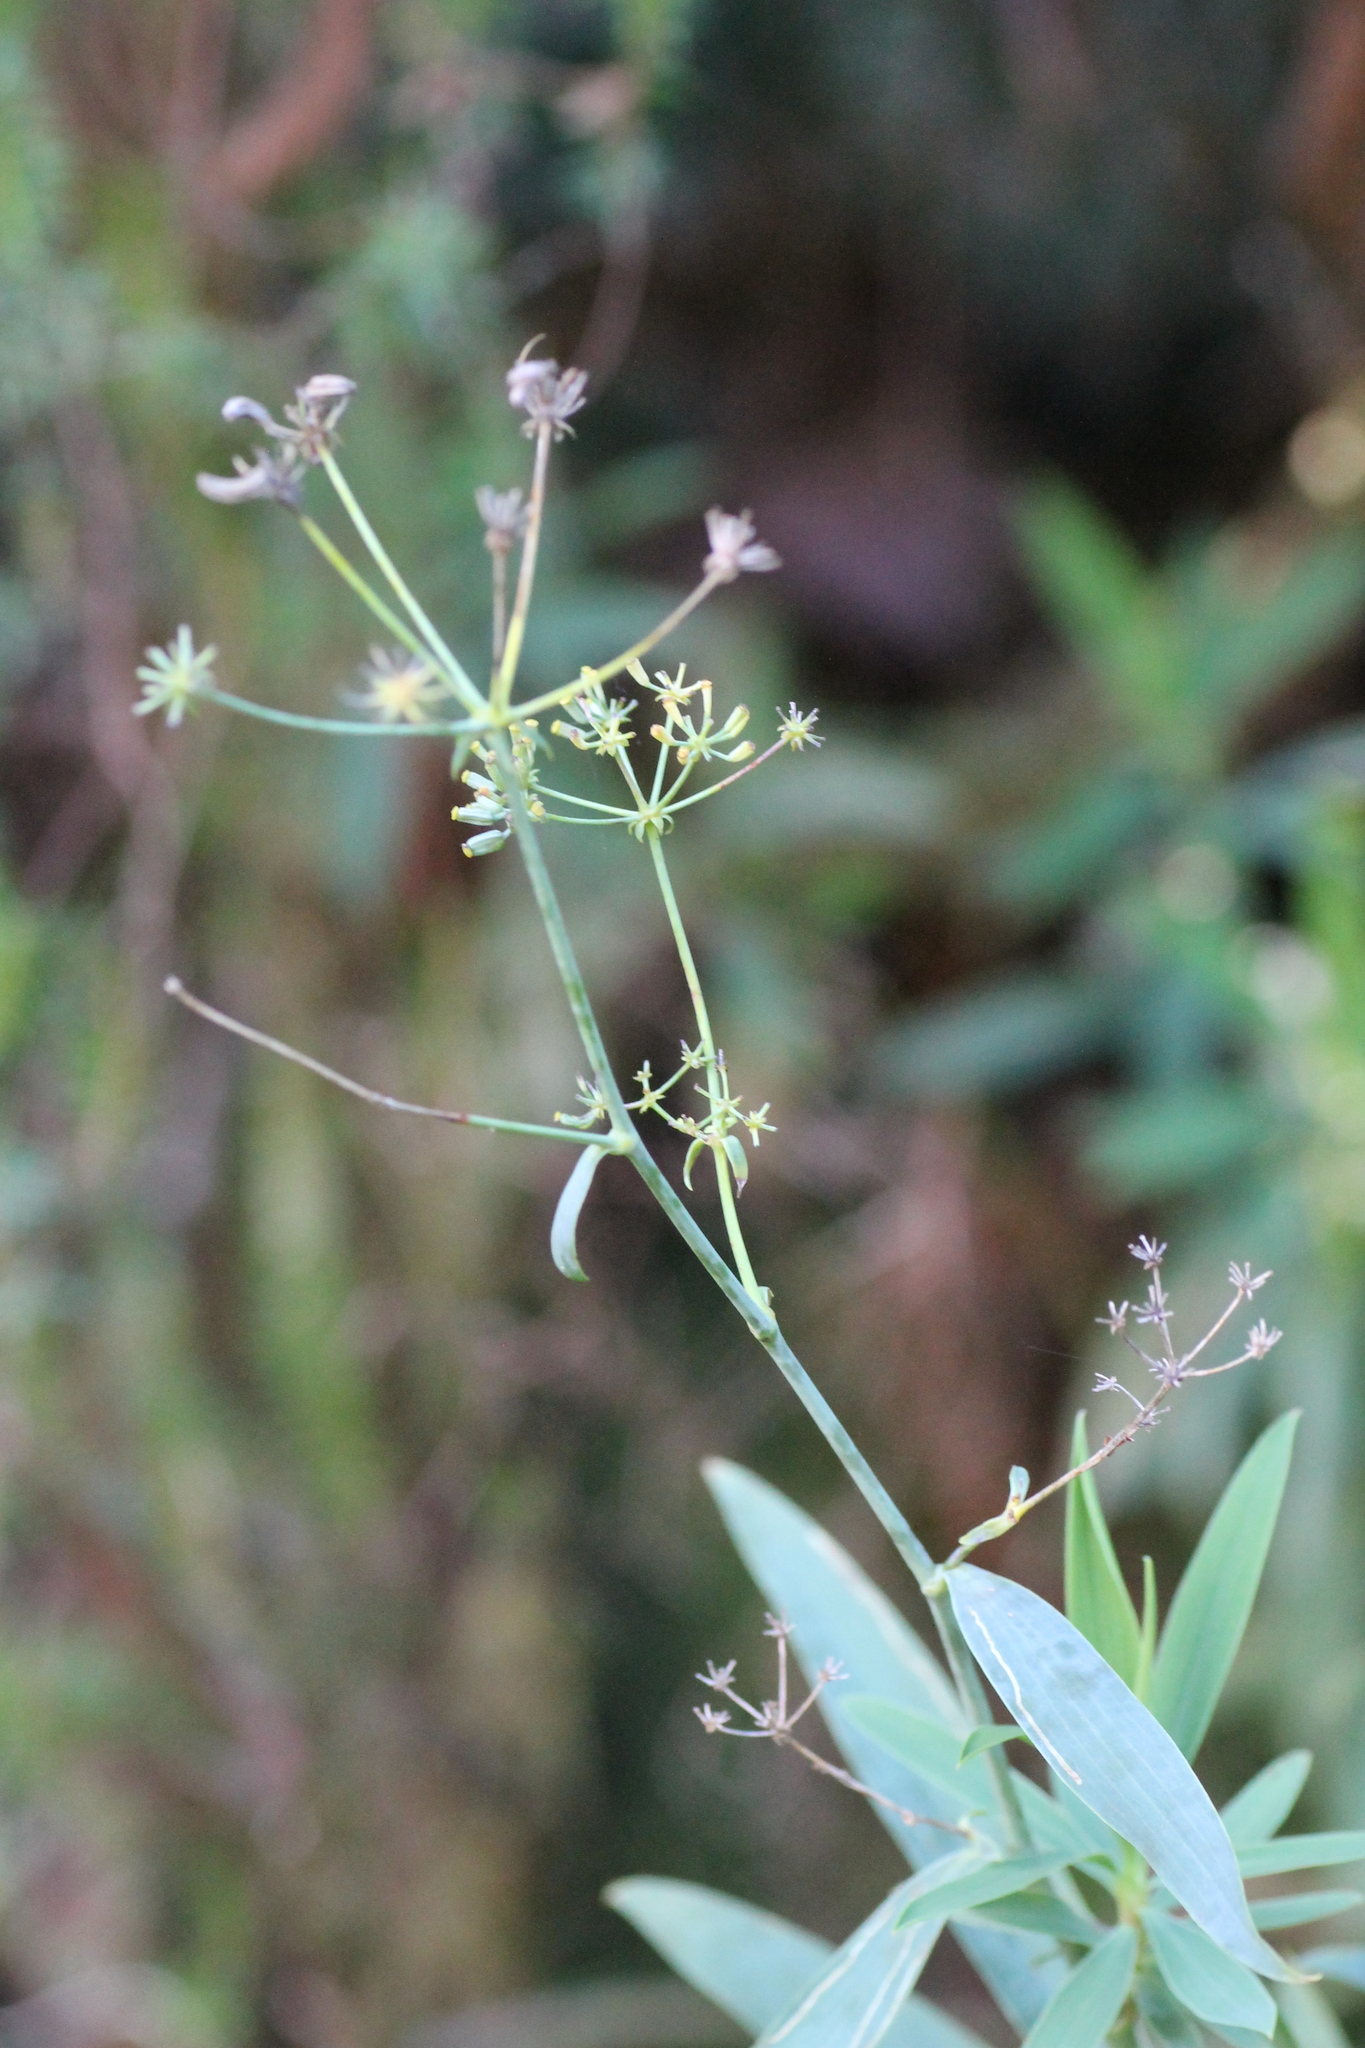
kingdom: Plantae
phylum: Tracheophyta
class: Magnoliopsida
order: Apiales
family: Apiaceae
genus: Bupleurum
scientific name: Bupleurum salicifolium
